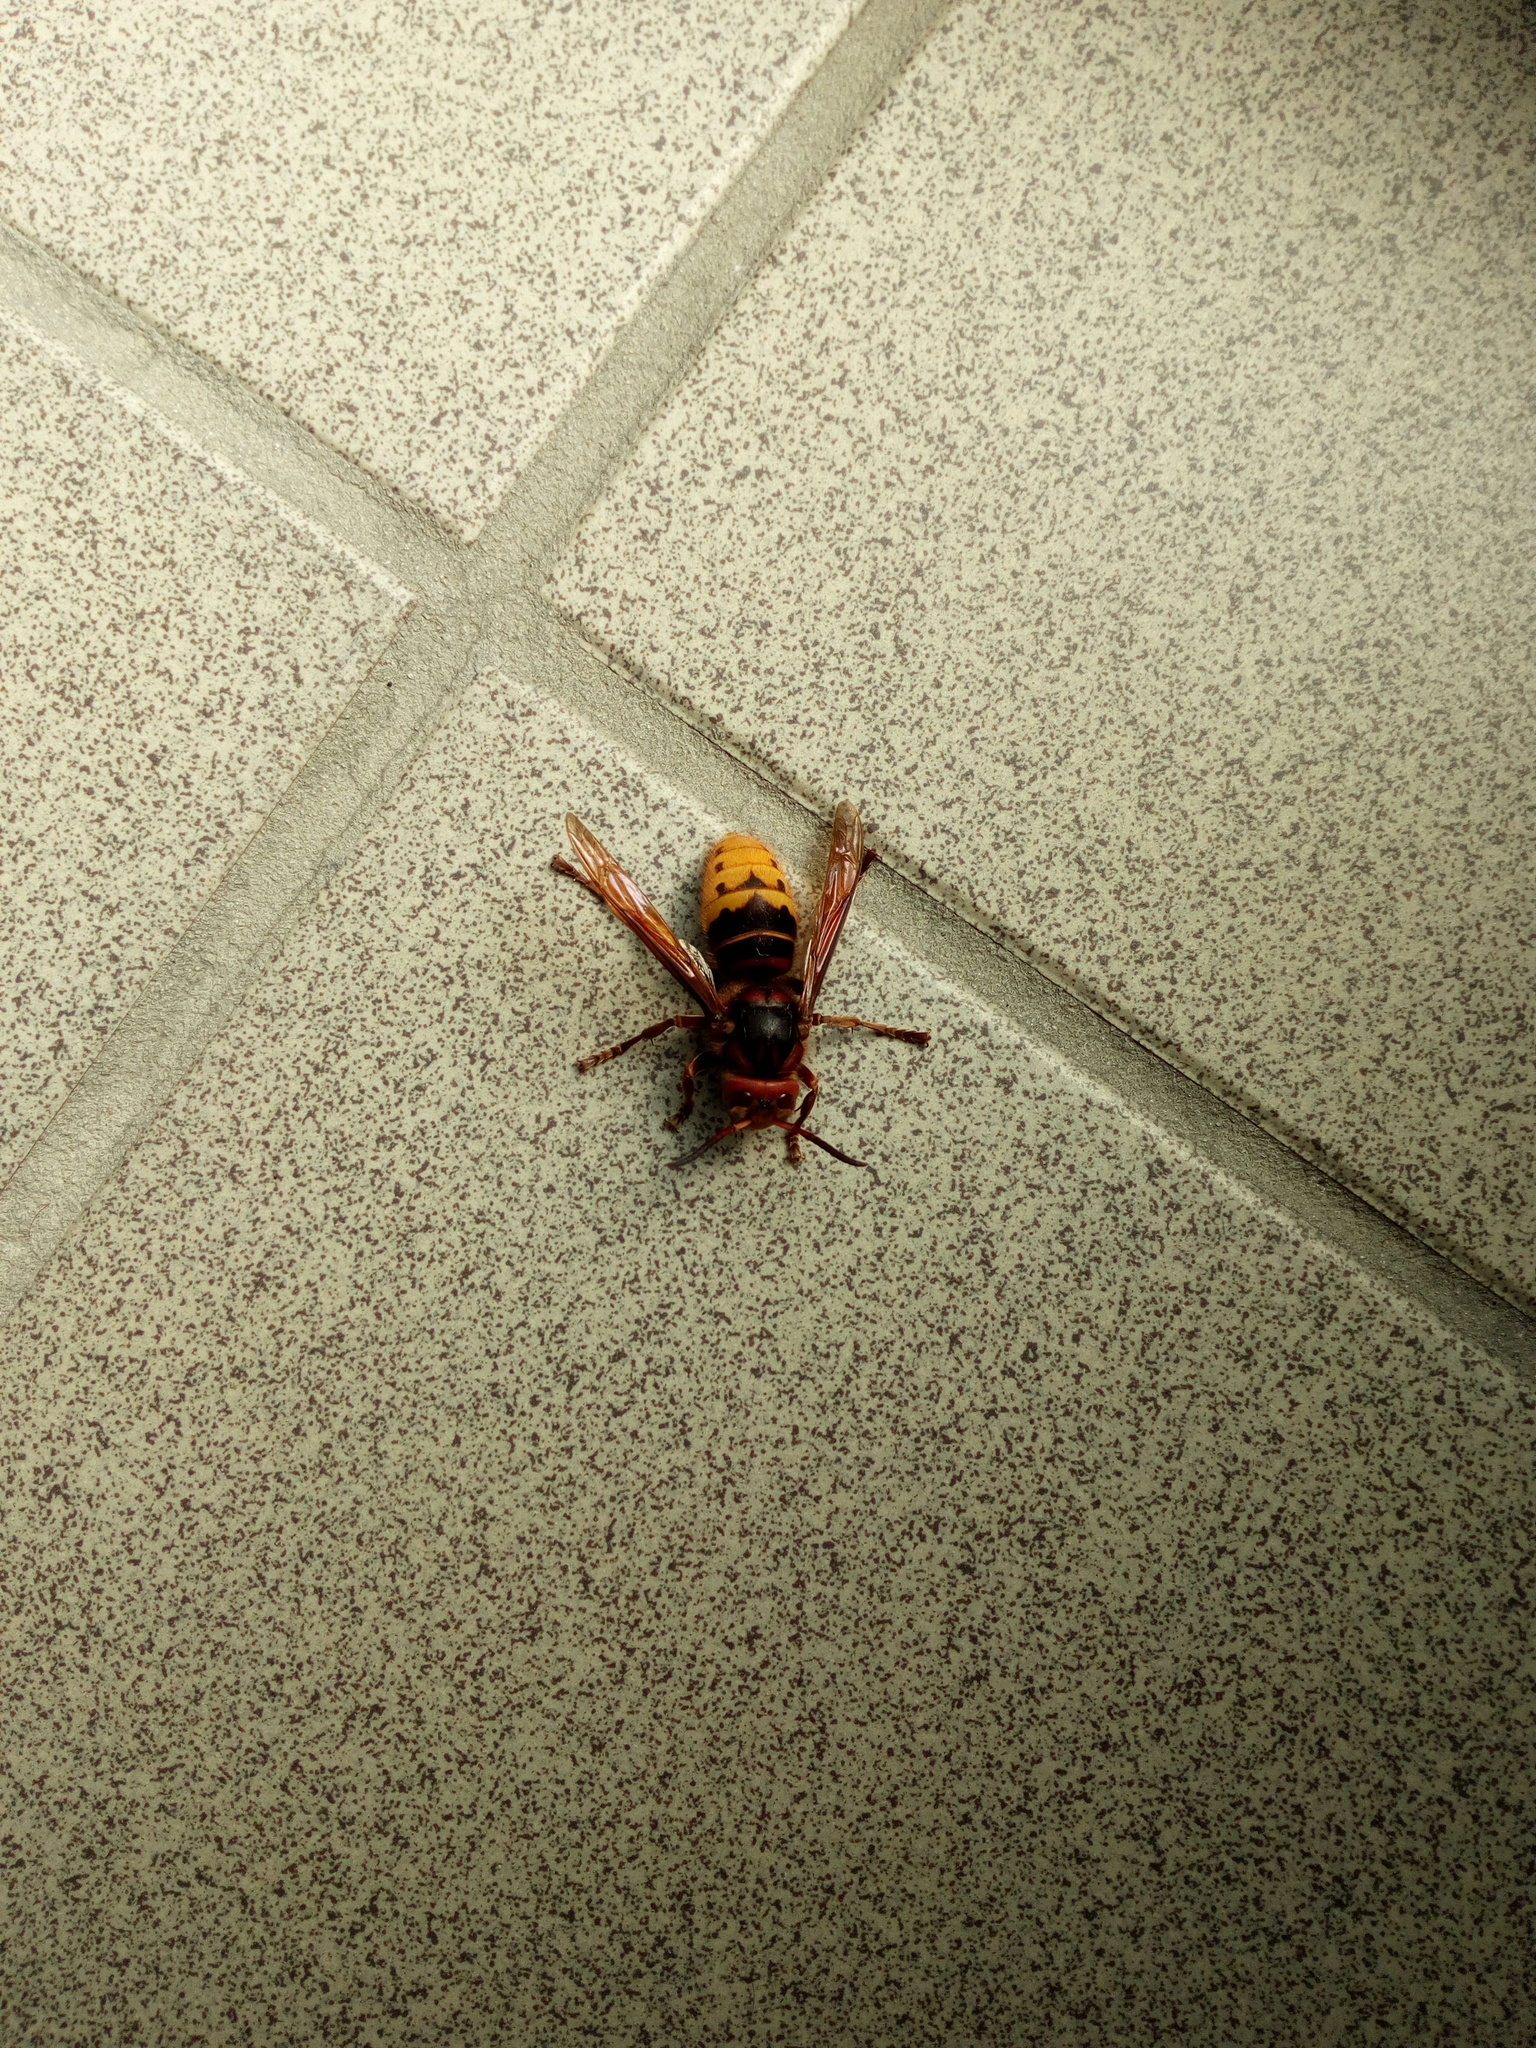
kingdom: Animalia
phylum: Arthropoda
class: Insecta
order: Hymenoptera
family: Vespidae
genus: Vespa
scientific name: Vespa crabro
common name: Hornet
